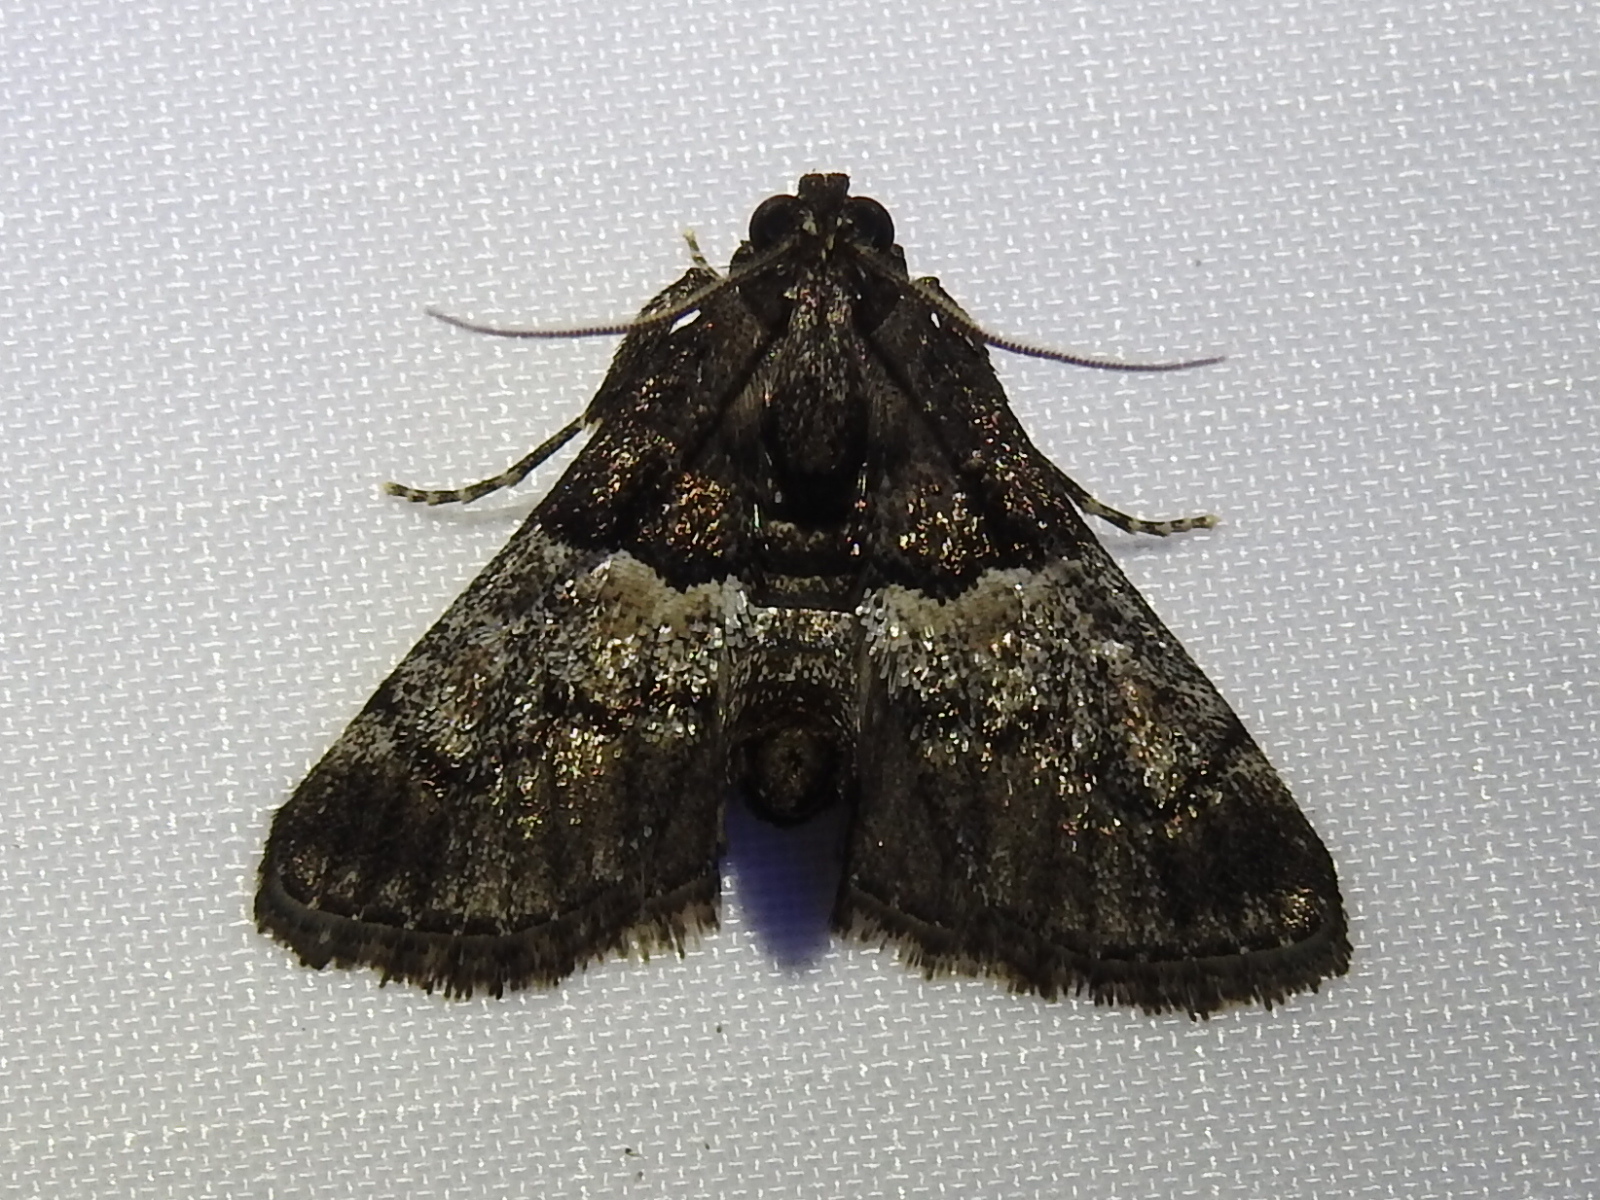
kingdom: Animalia
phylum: Arthropoda
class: Insecta
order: Lepidoptera
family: Pyralidae
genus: Macalla
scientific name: Macalla zelleri
